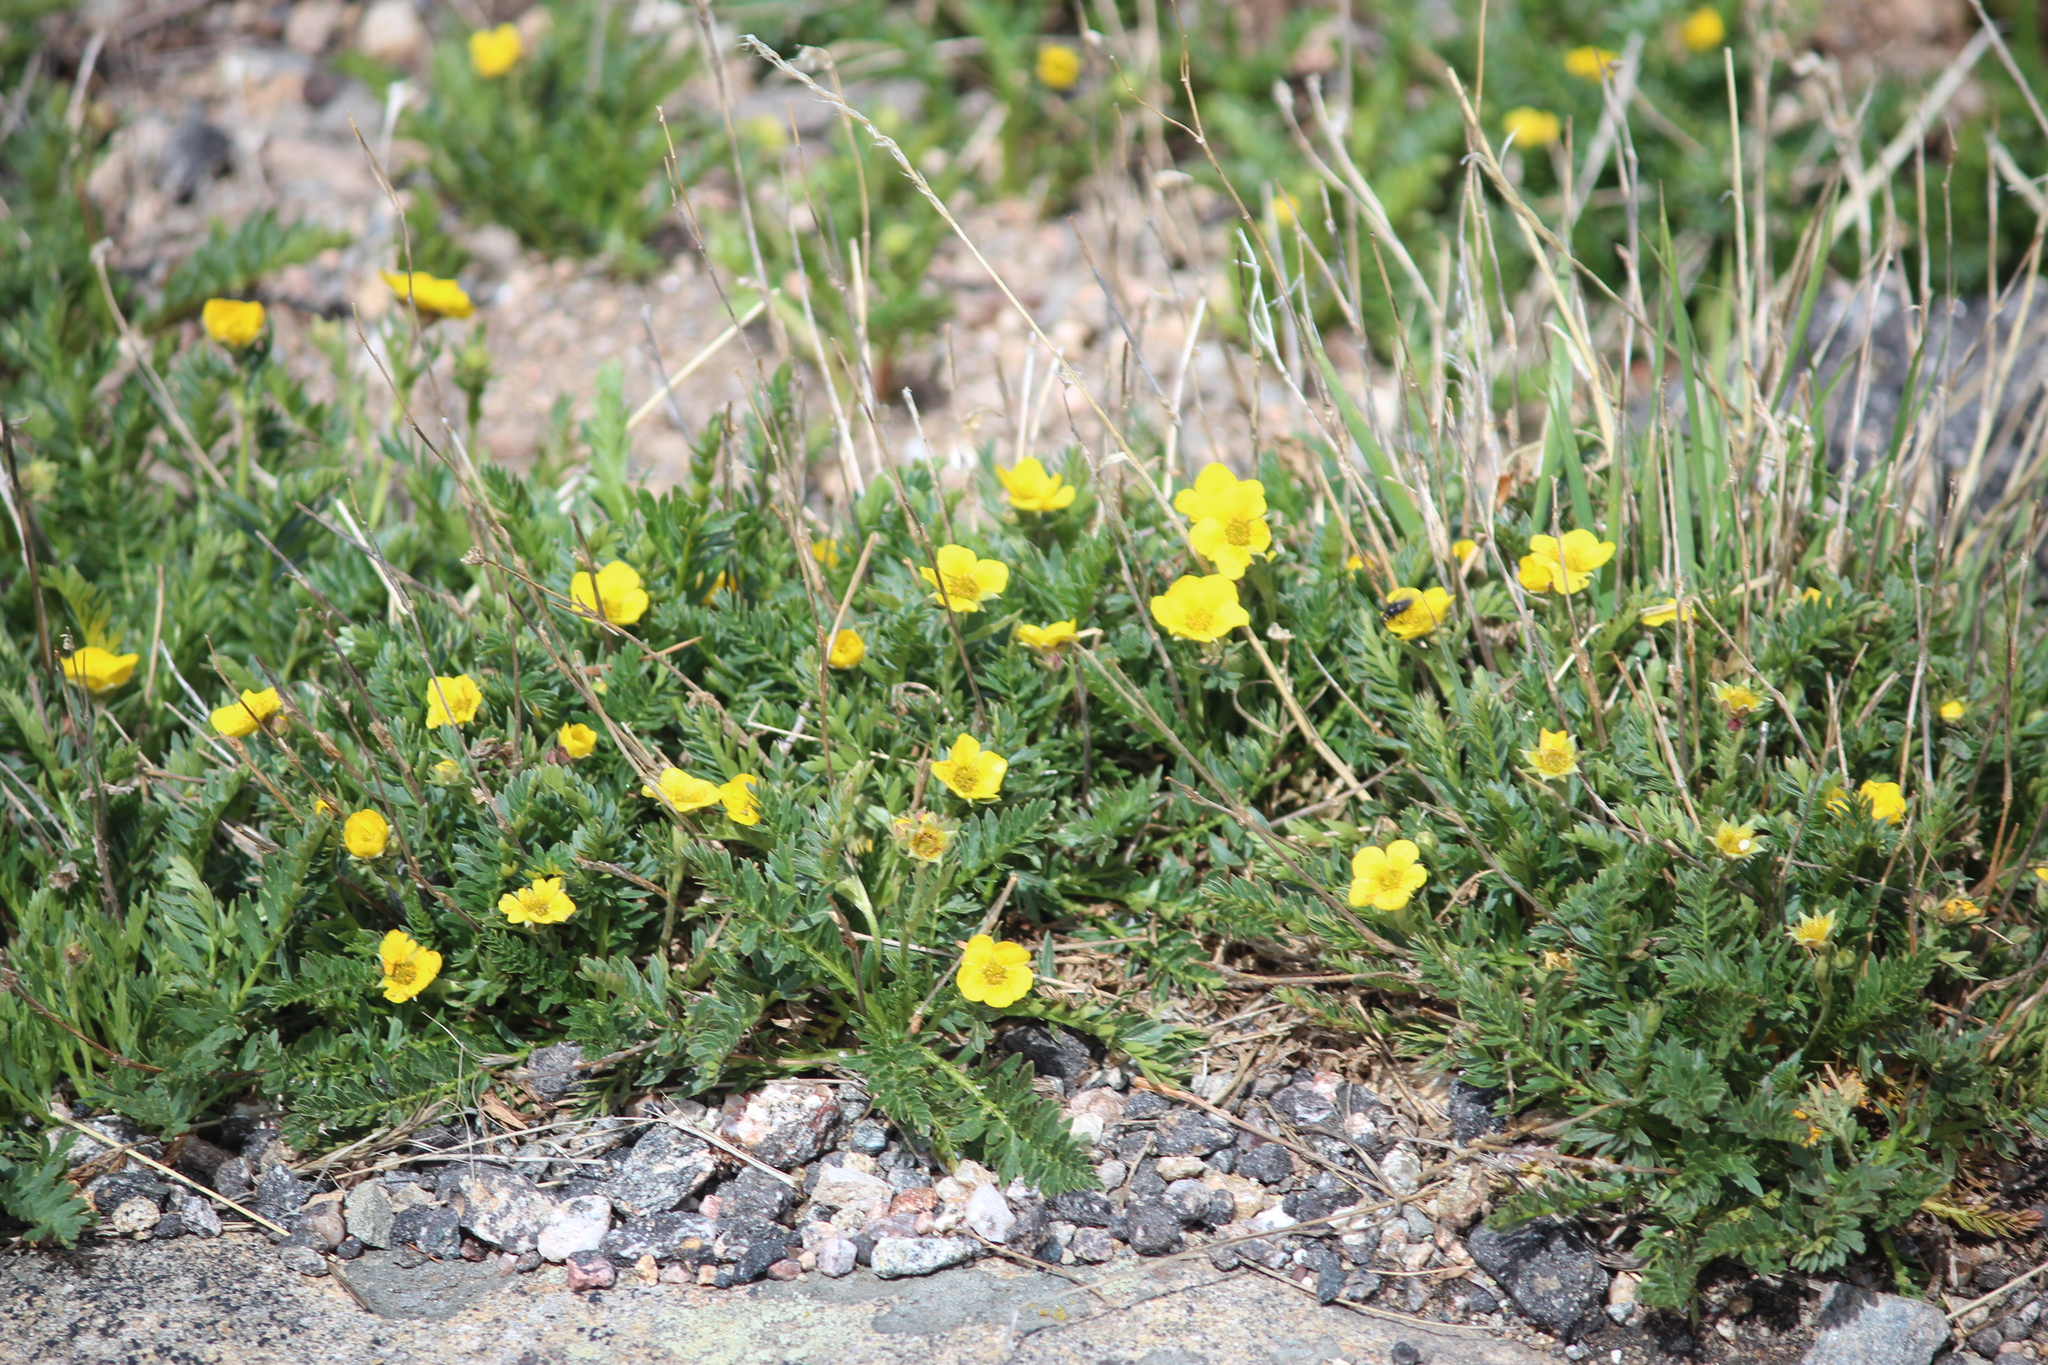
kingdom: Plantae
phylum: Tracheophyta
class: Magnoliopsida
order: Rosales
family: Rosaceae
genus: Geum
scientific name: Geum rossii
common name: Alpine avens
